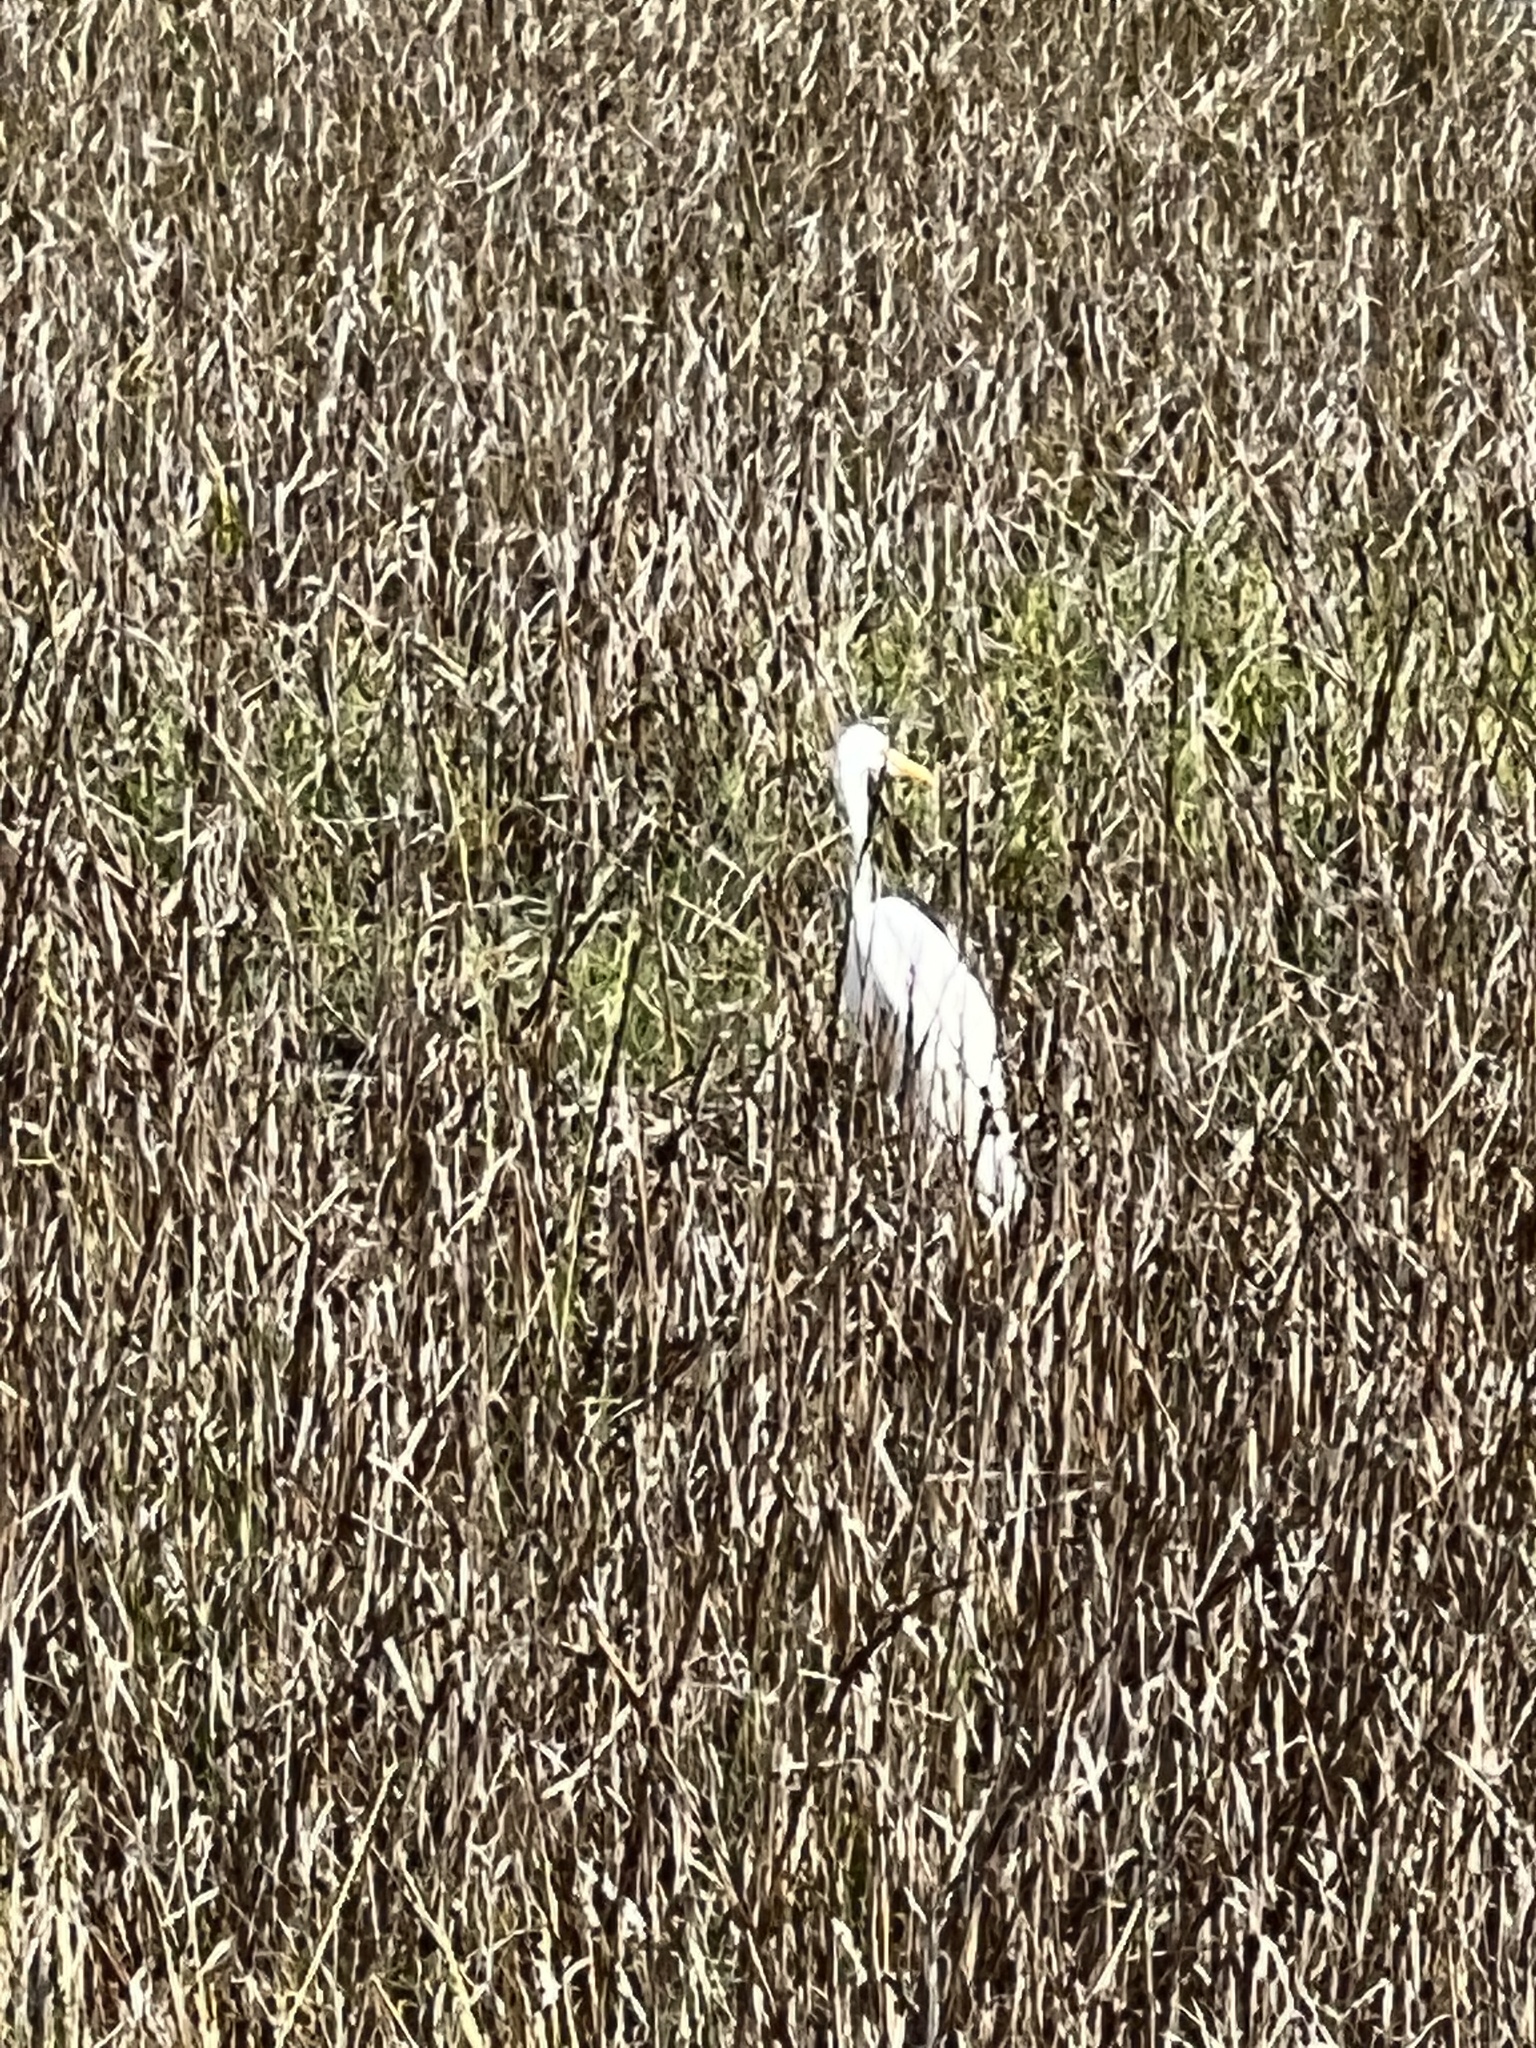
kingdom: Animalia
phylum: Chordata
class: Aves
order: Pelecaniformes
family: Ardeidae
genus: Ardea
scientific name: Ardea alba
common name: Great egret
